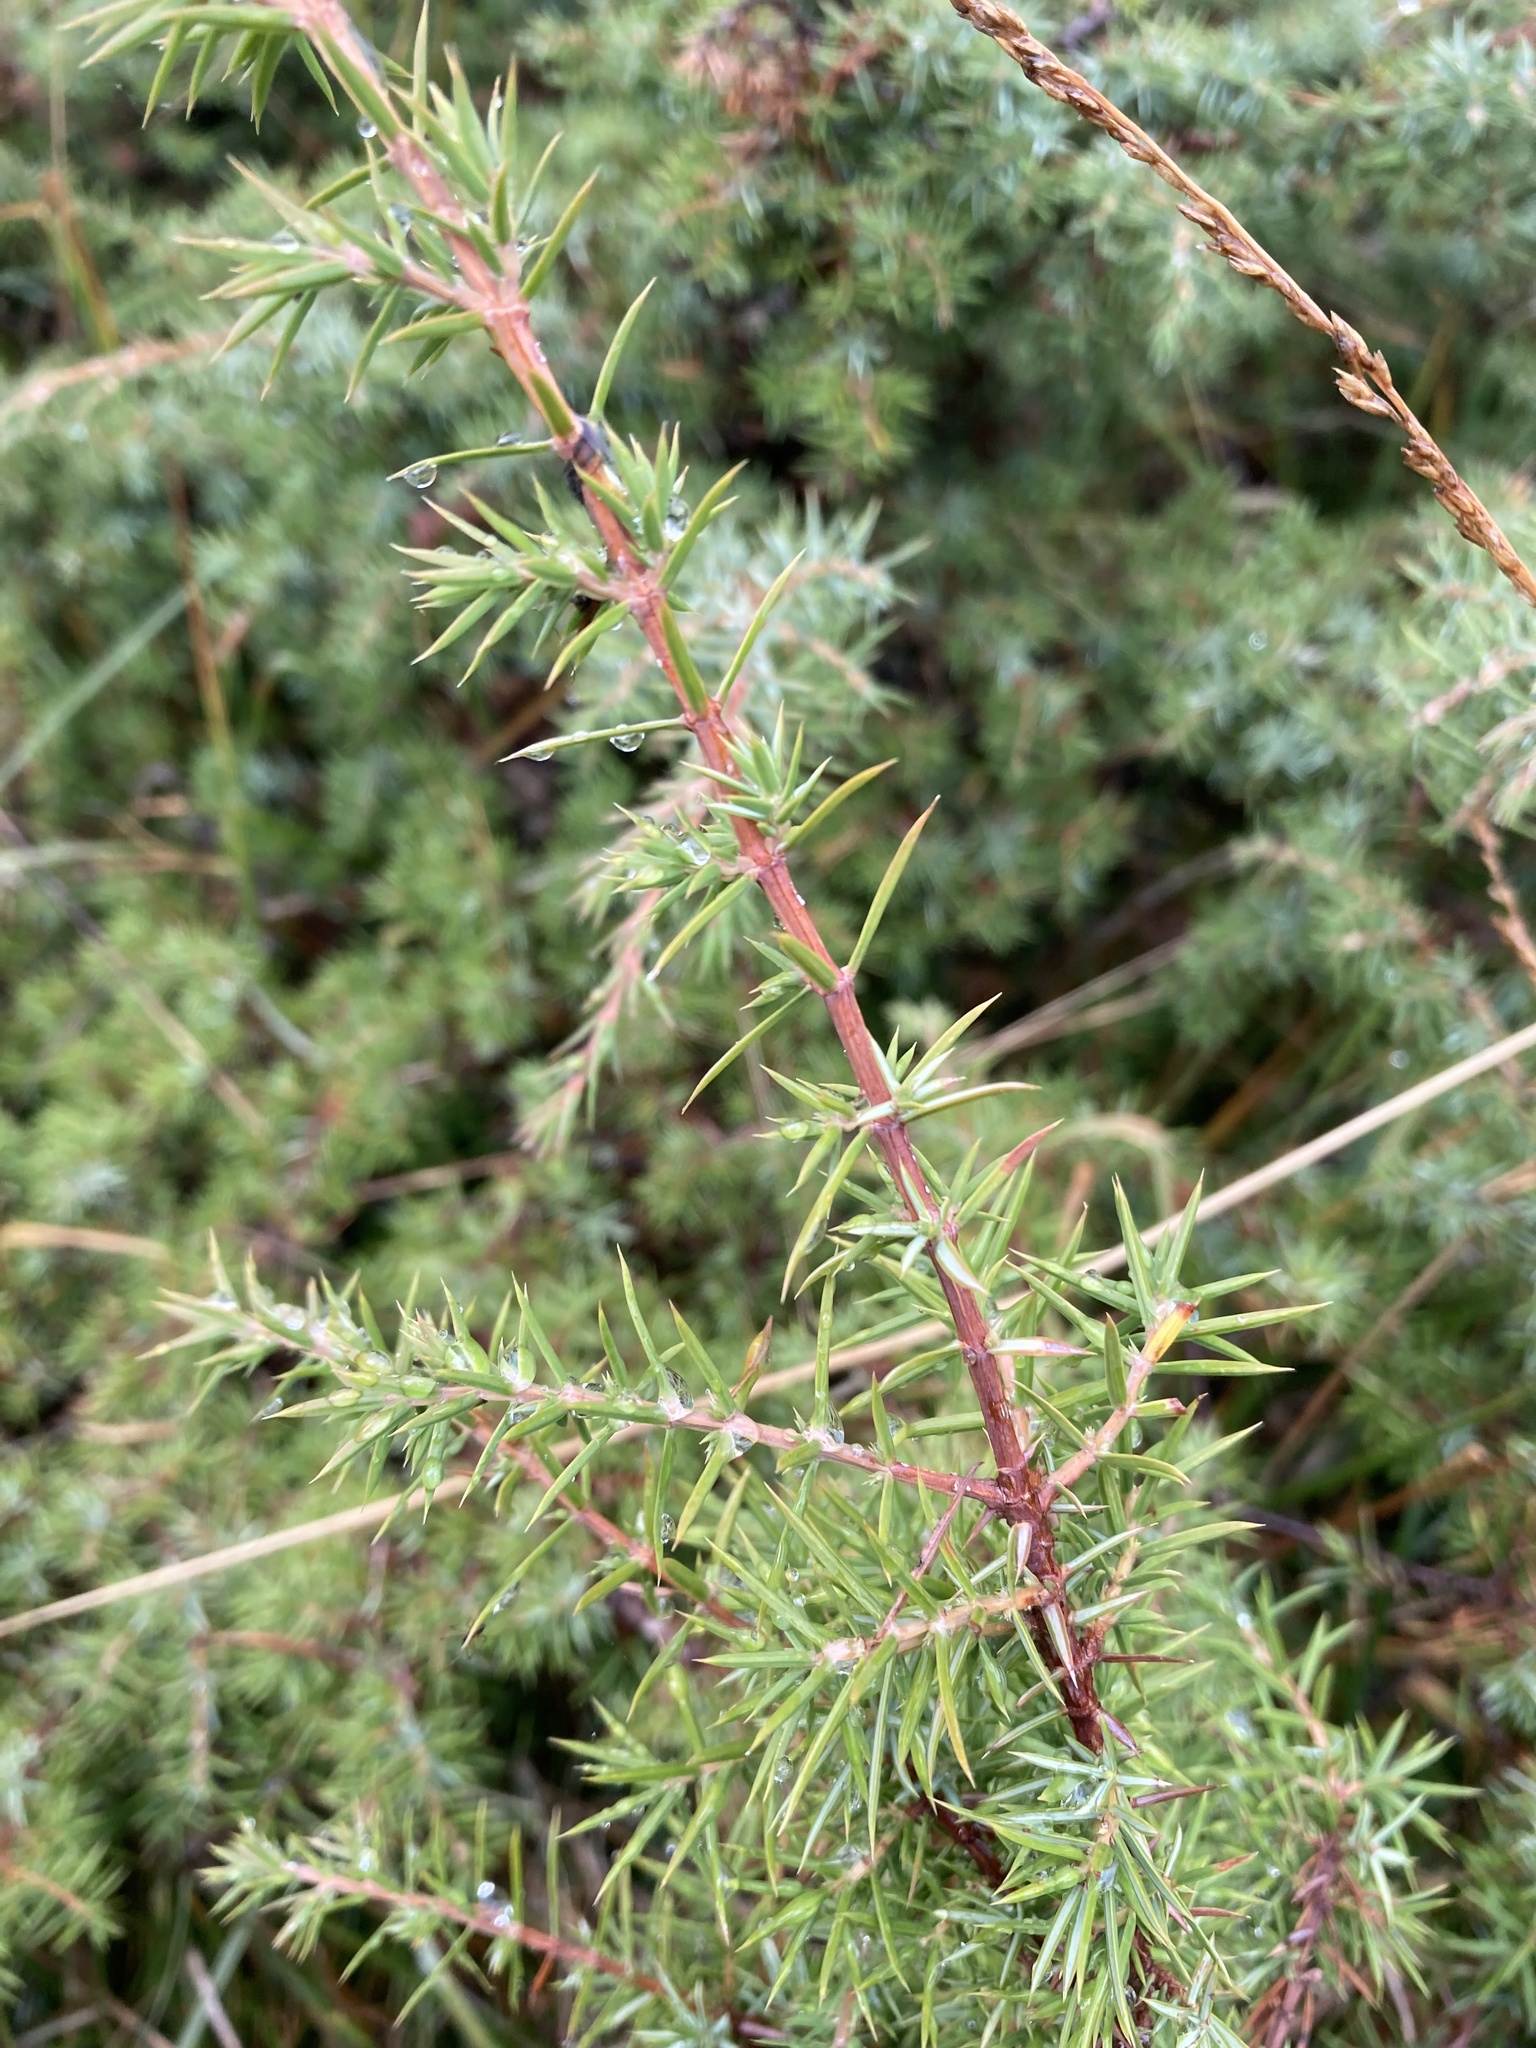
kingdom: Plantae
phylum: Tracheophyta
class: Pinopsida
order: Pinales
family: Cupressaceae
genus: Juniperus
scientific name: Juniperus communis
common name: Common juniper
